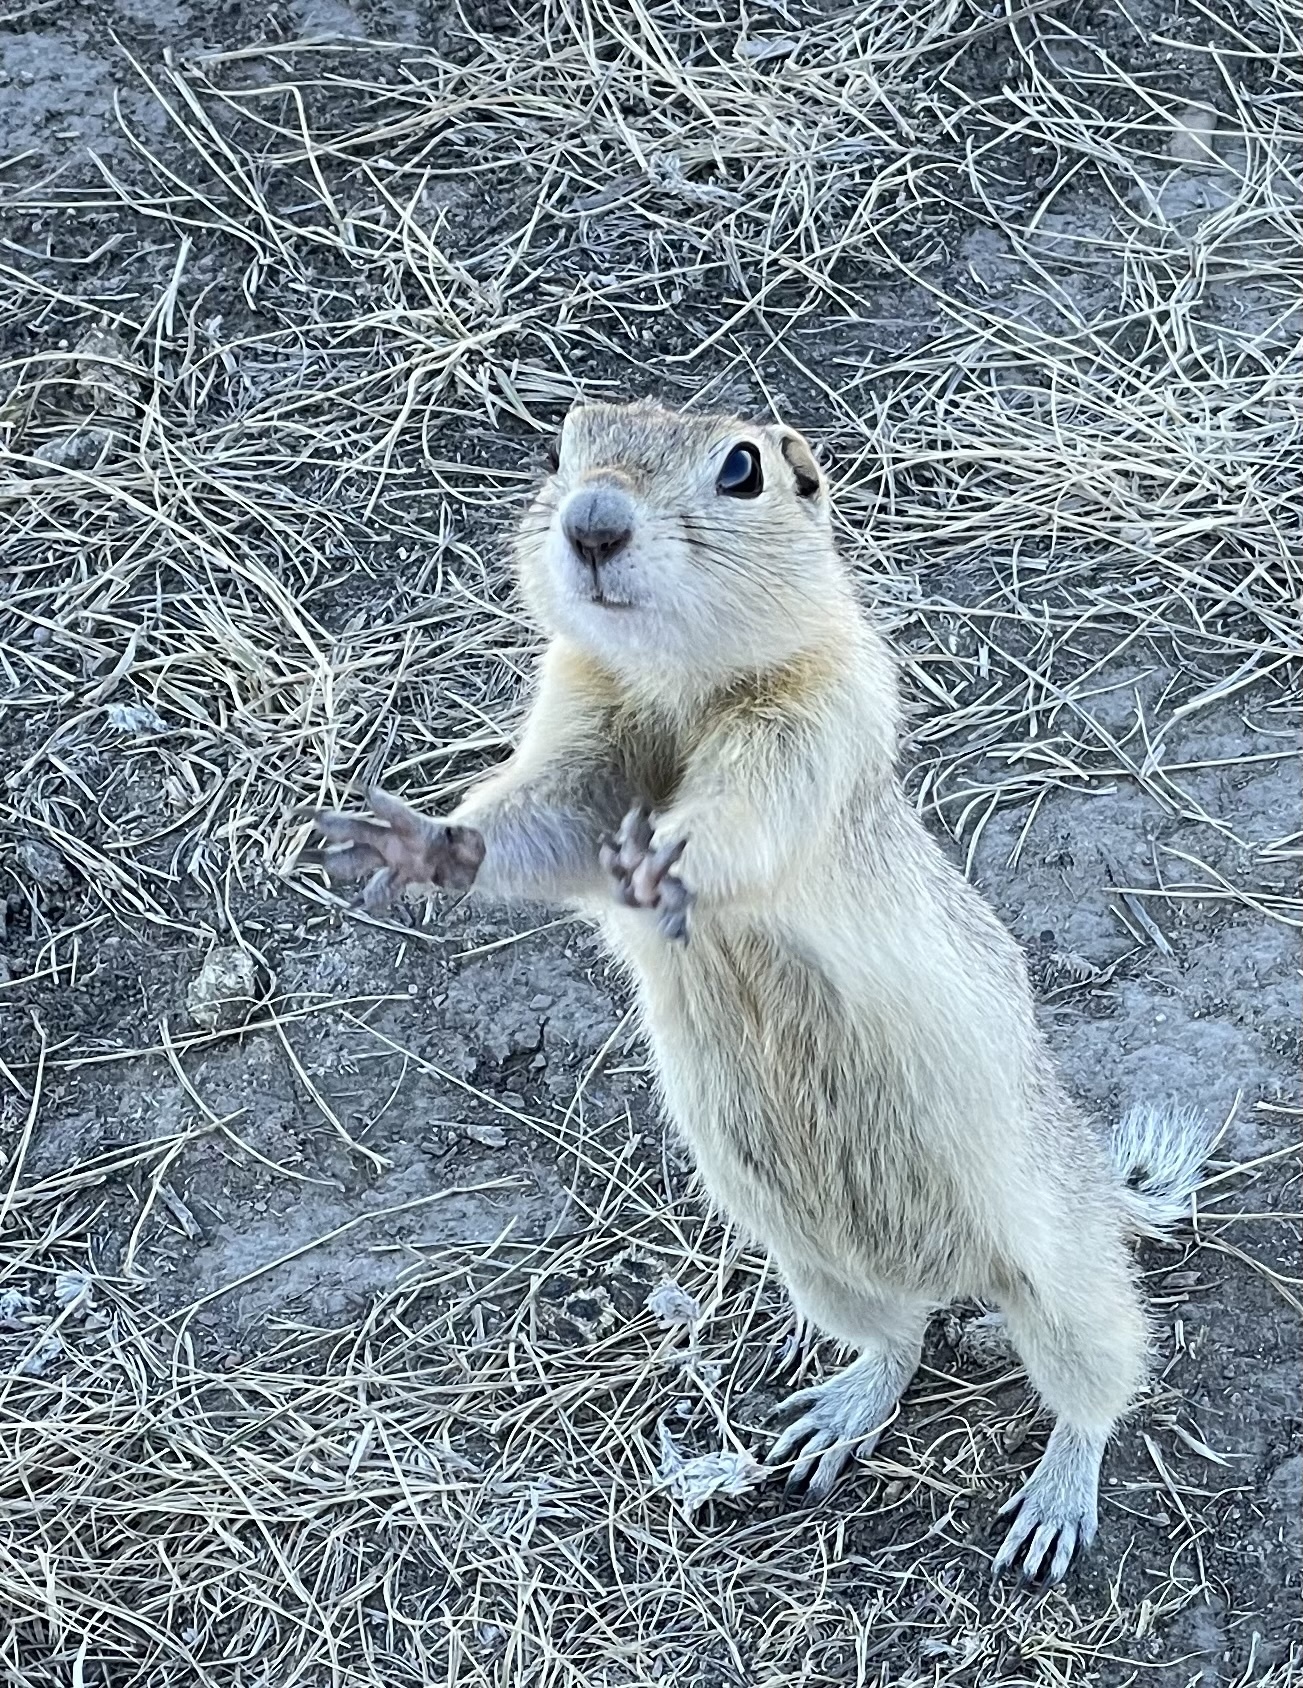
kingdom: Animalia
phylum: Chordata
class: Mammalia
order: Rodentia
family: Sciuridae
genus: Urocitellus
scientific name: Urocitellus richardsonii
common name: Richardson's ground squirrel
